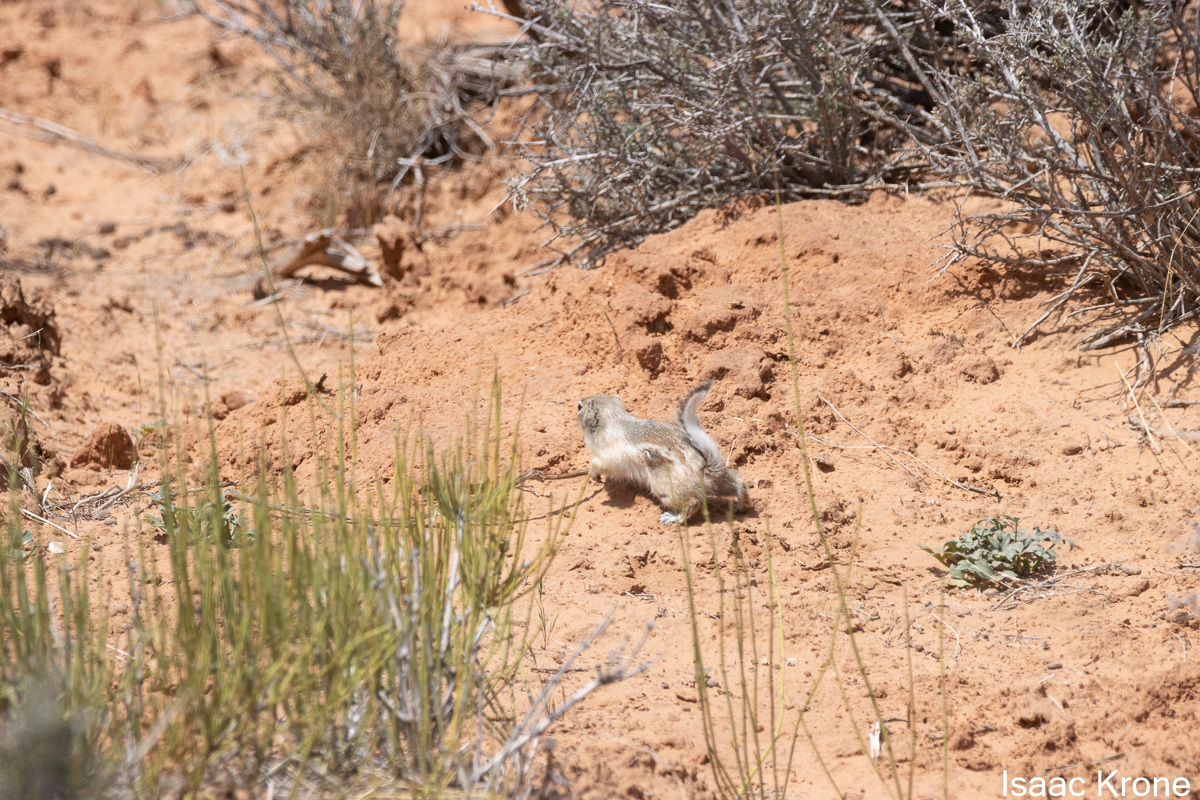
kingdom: Animalia
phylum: Chordata
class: Mammalia
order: Rodentia
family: Sciuridae
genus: Ammospermophilus
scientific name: Ammospermophilus leucurus
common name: White-tailed antelope squirrel
